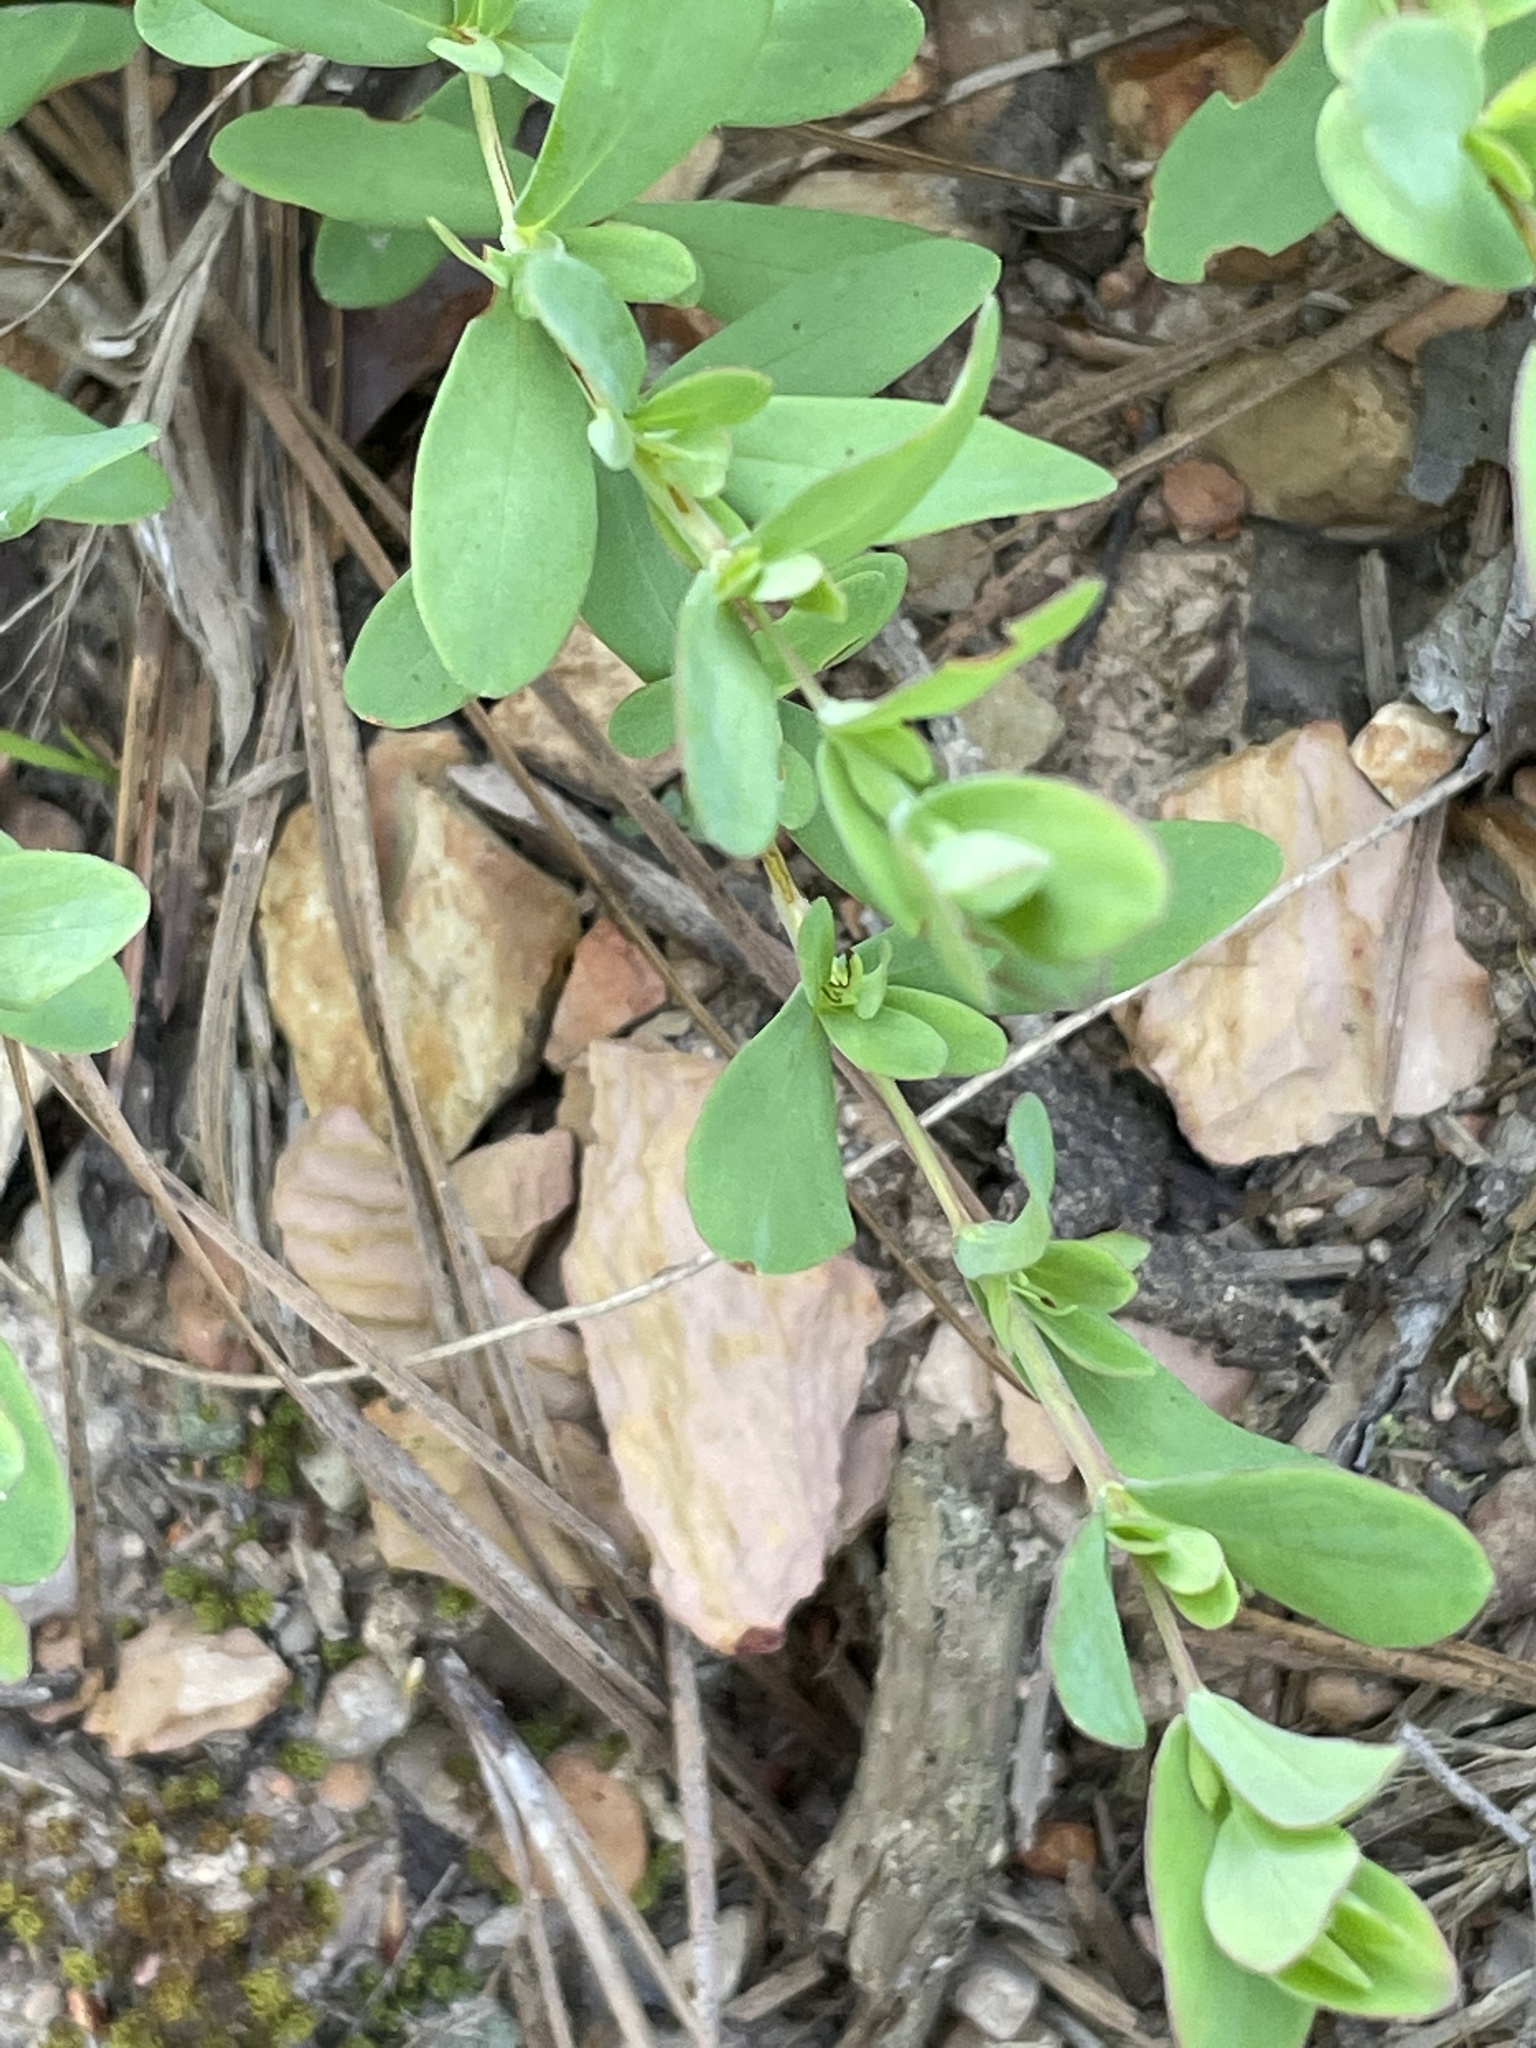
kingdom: Plantae
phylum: Tracheophyta
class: Magnoliopsida
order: Malpighiales
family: Hypericaceae
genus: Hypericum
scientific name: Hypericum hypericoides
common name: St. andrew's cross
